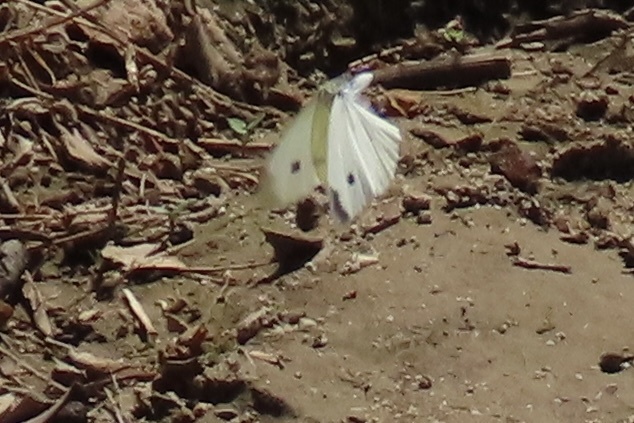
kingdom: Animalia
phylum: Arthropoda
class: Insecta
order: Lepidoptera
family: Pieridae
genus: Pieris
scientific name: Pieris rapae
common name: Small white
